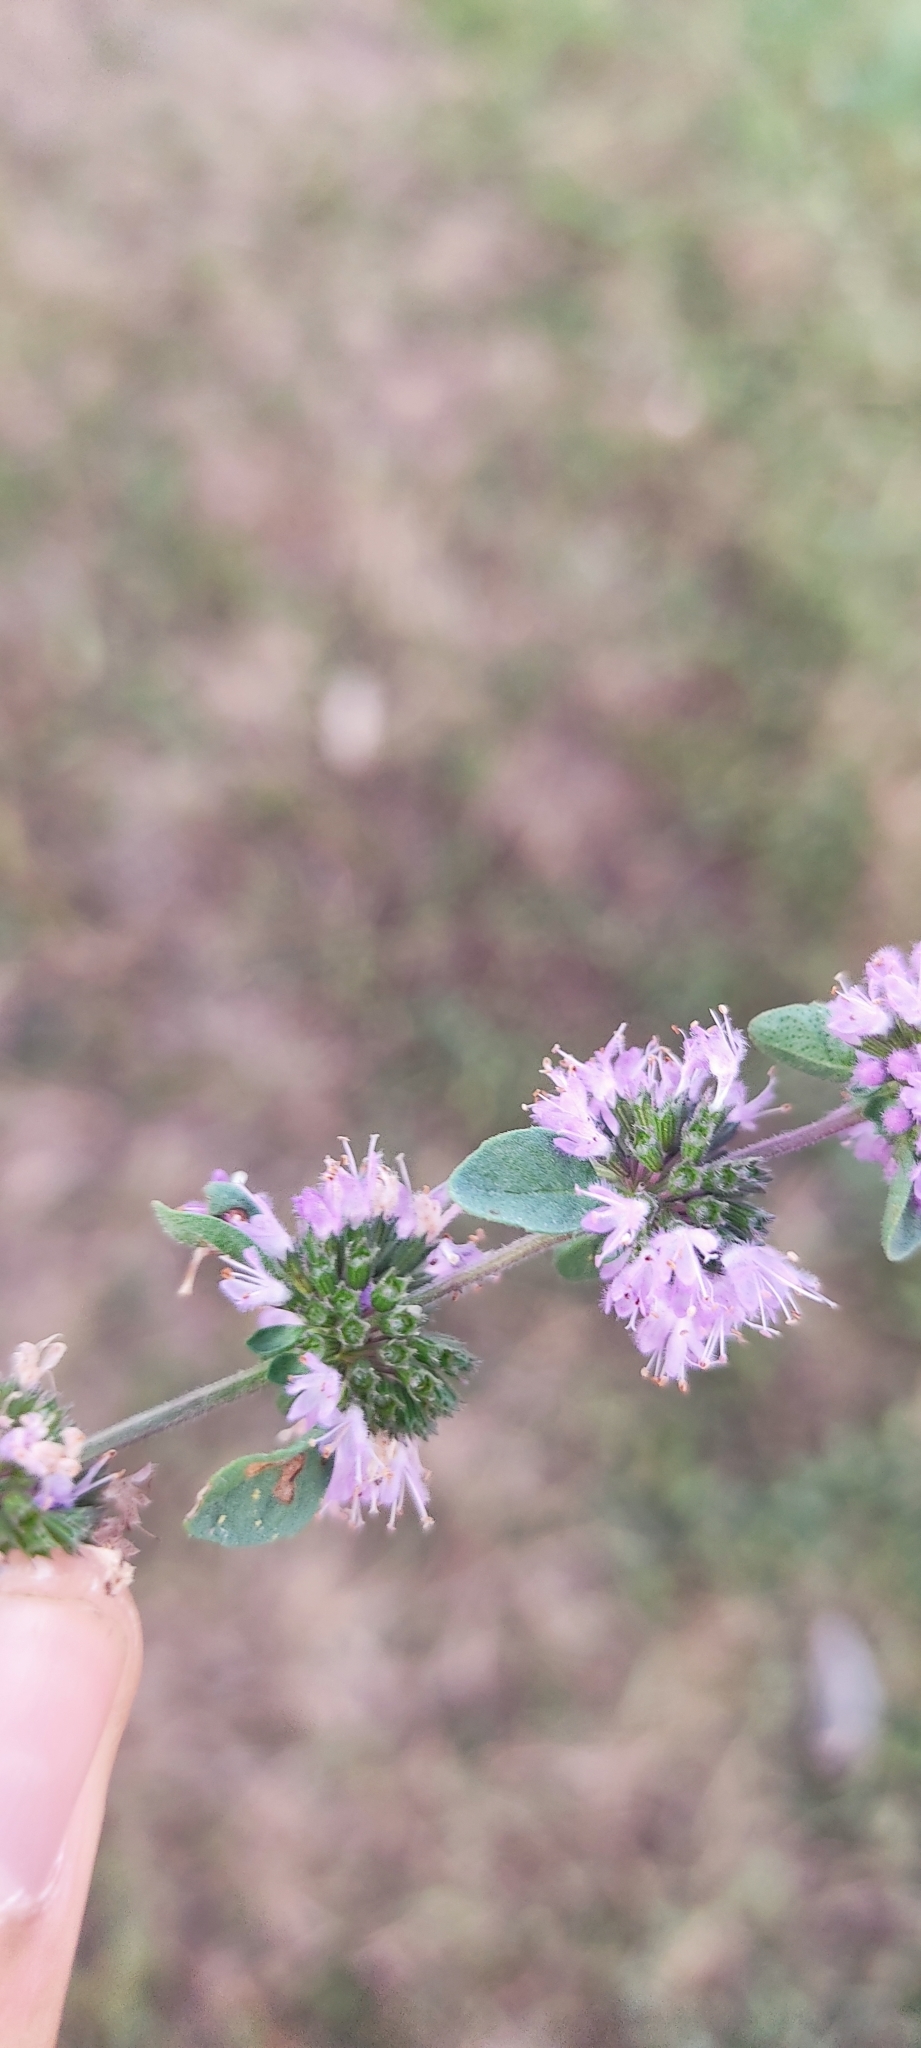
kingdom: Plantae
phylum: Tracheophyta
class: Magnoliopsida
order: Lamiales
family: Lamiaceae
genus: Mentha
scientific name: Mentha pulegium
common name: Pennyroyal
